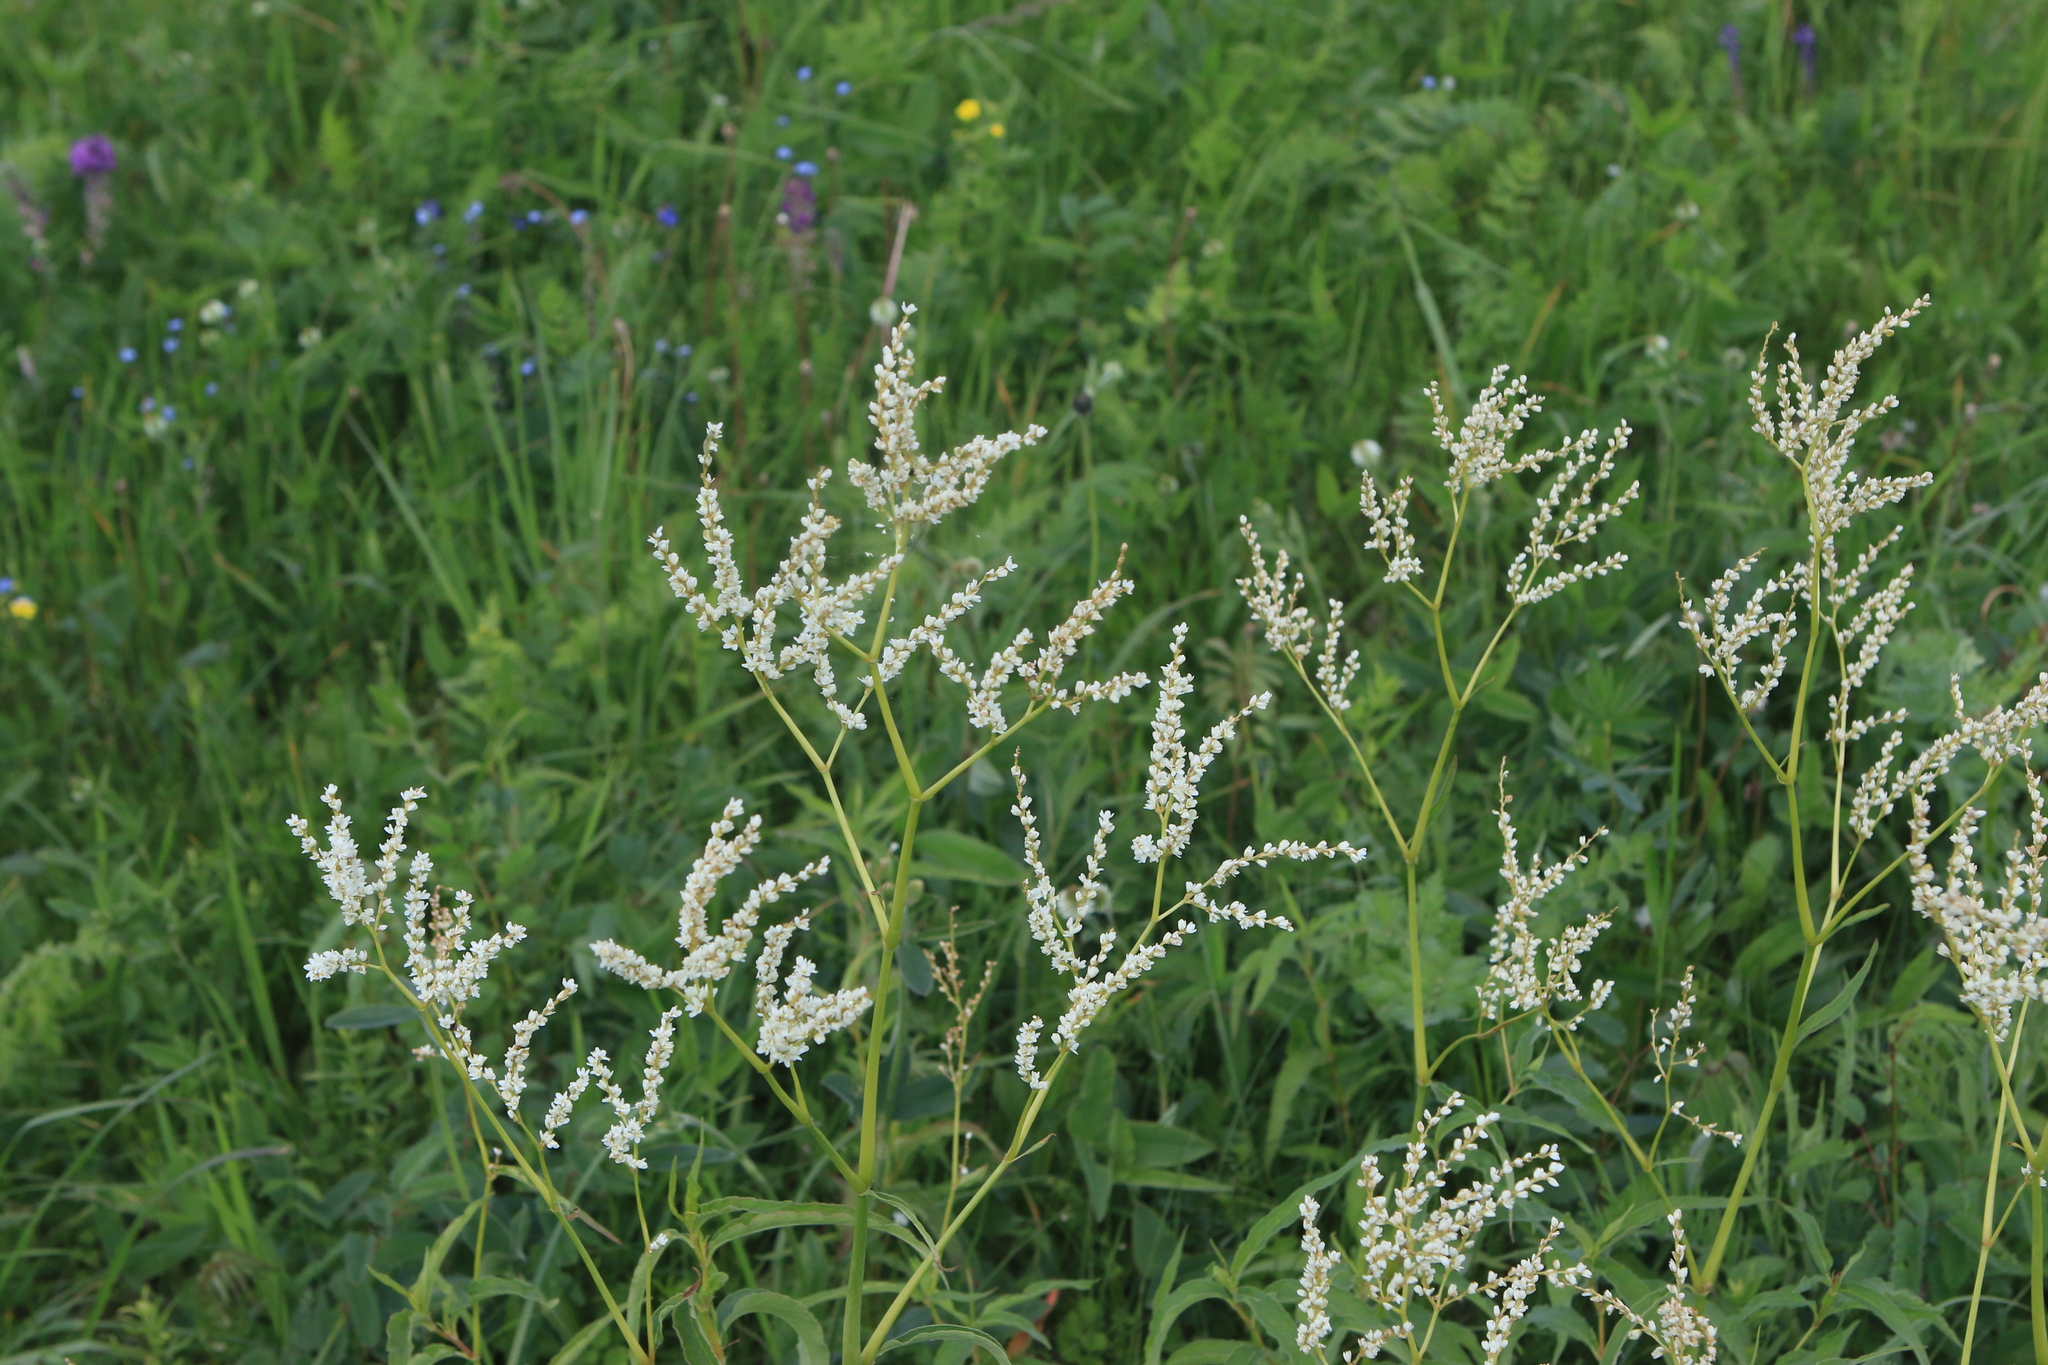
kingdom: Plantae
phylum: Tracheophyta
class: Magnoliopsida
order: Caryophyllales
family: Polygonaceae
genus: Koenigia
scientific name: Koenigia alpina
